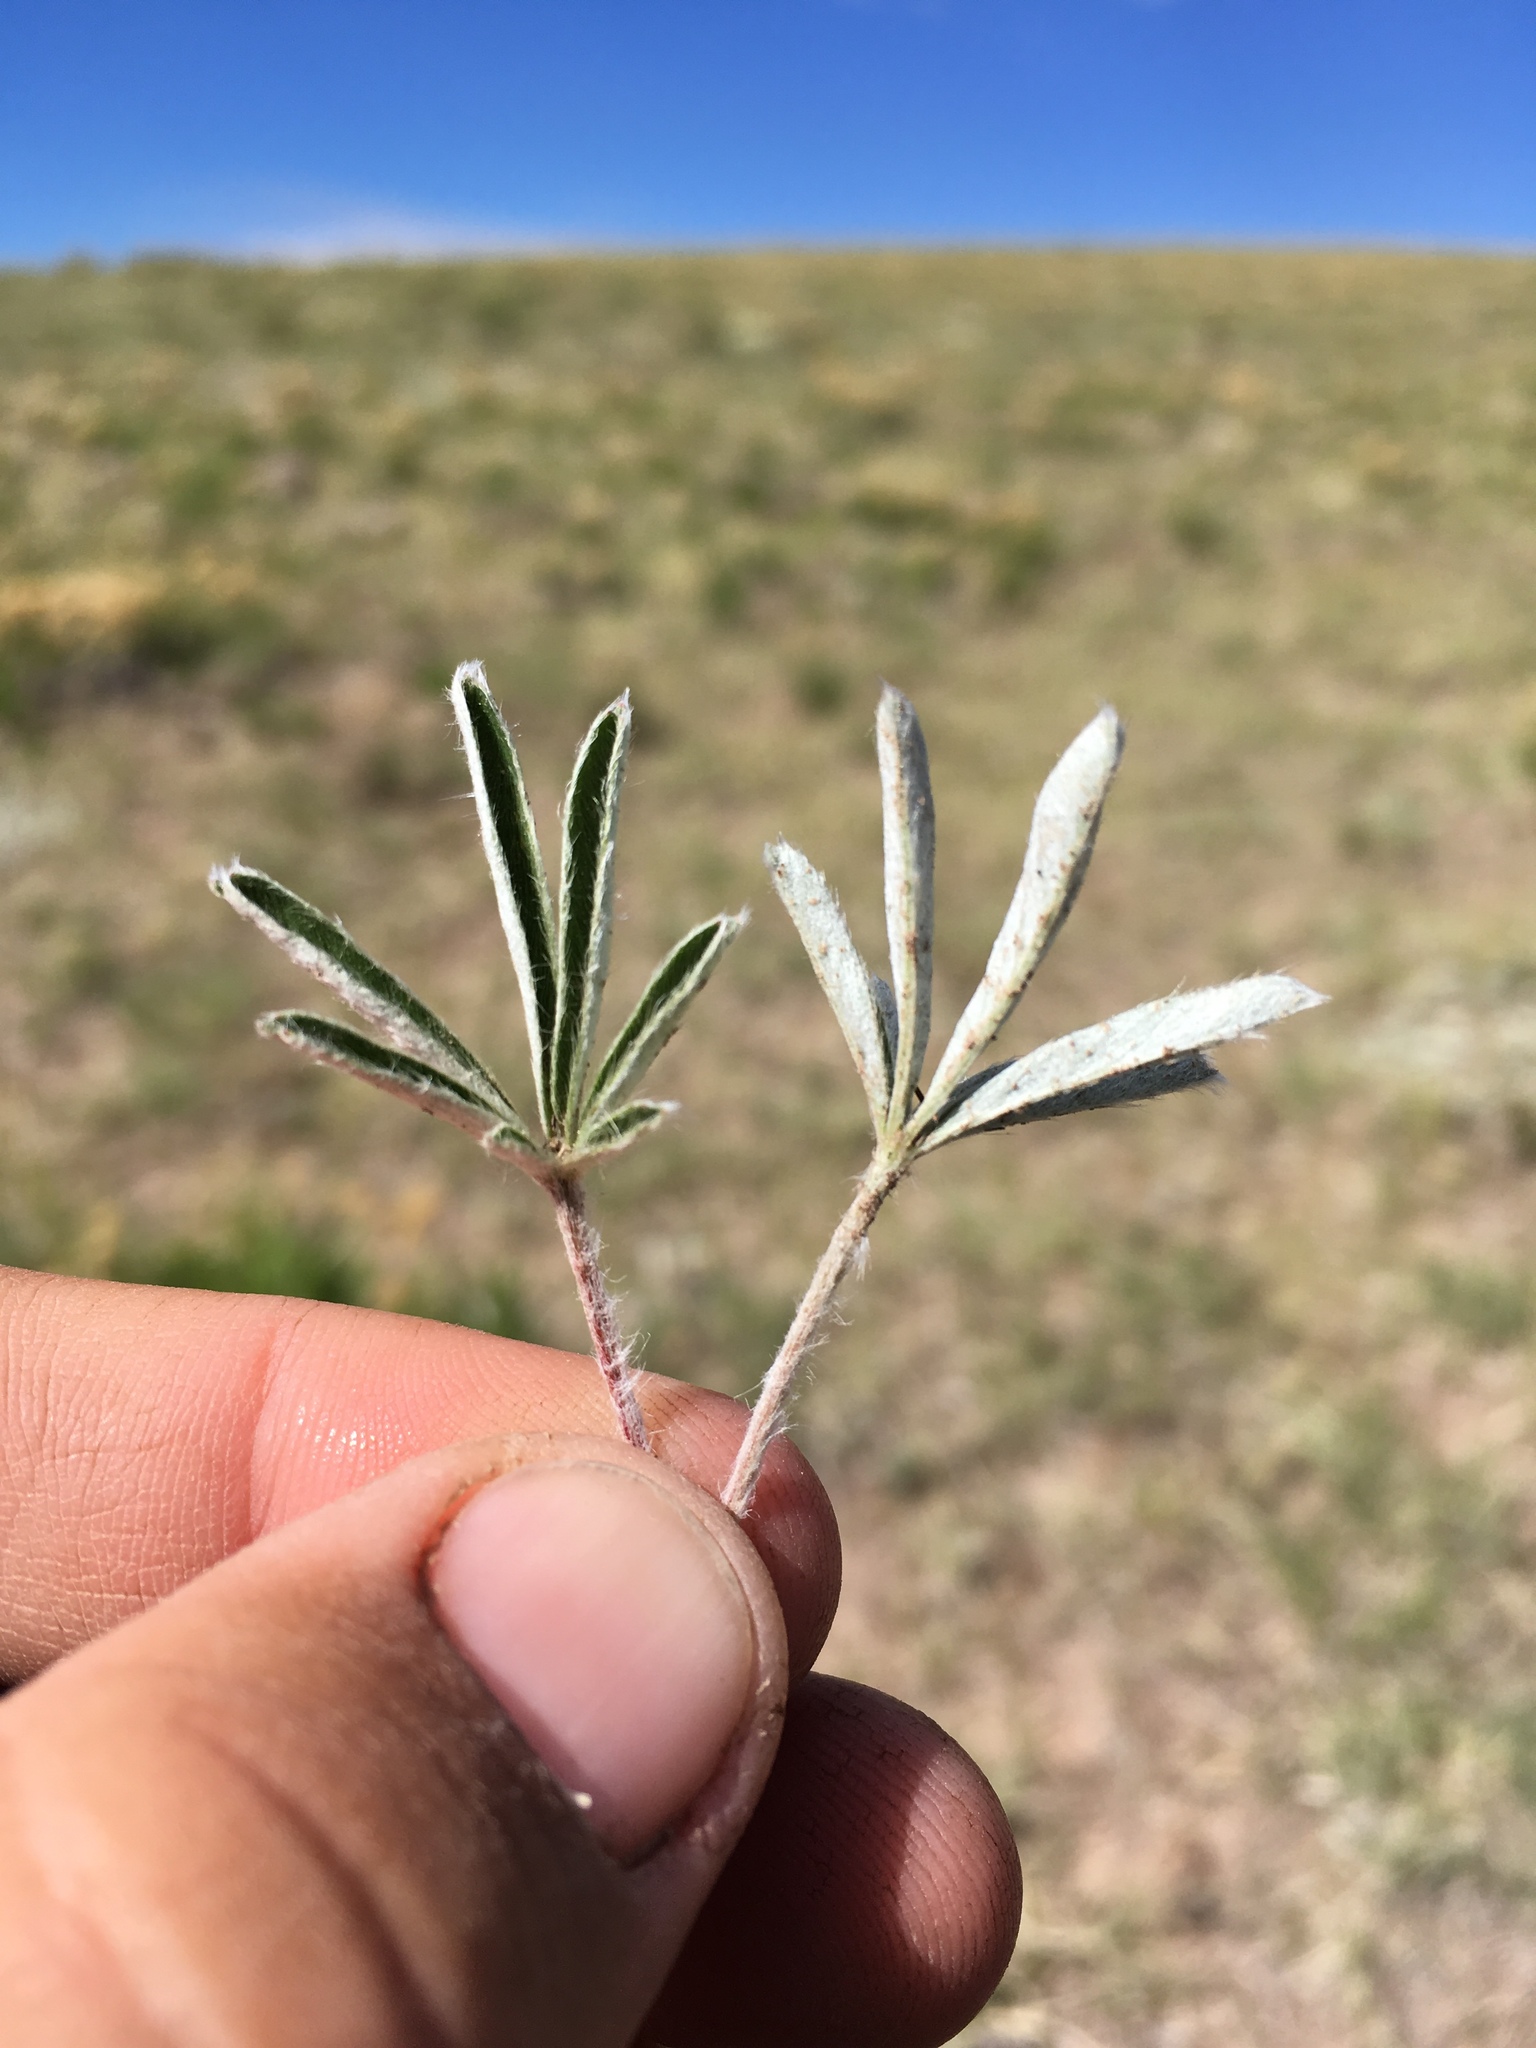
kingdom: Plantae
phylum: Tracheophyta
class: Magnoliopsida
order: Rosales
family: Rosaceae
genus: Potentilla
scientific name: Potentilla bicrenata
